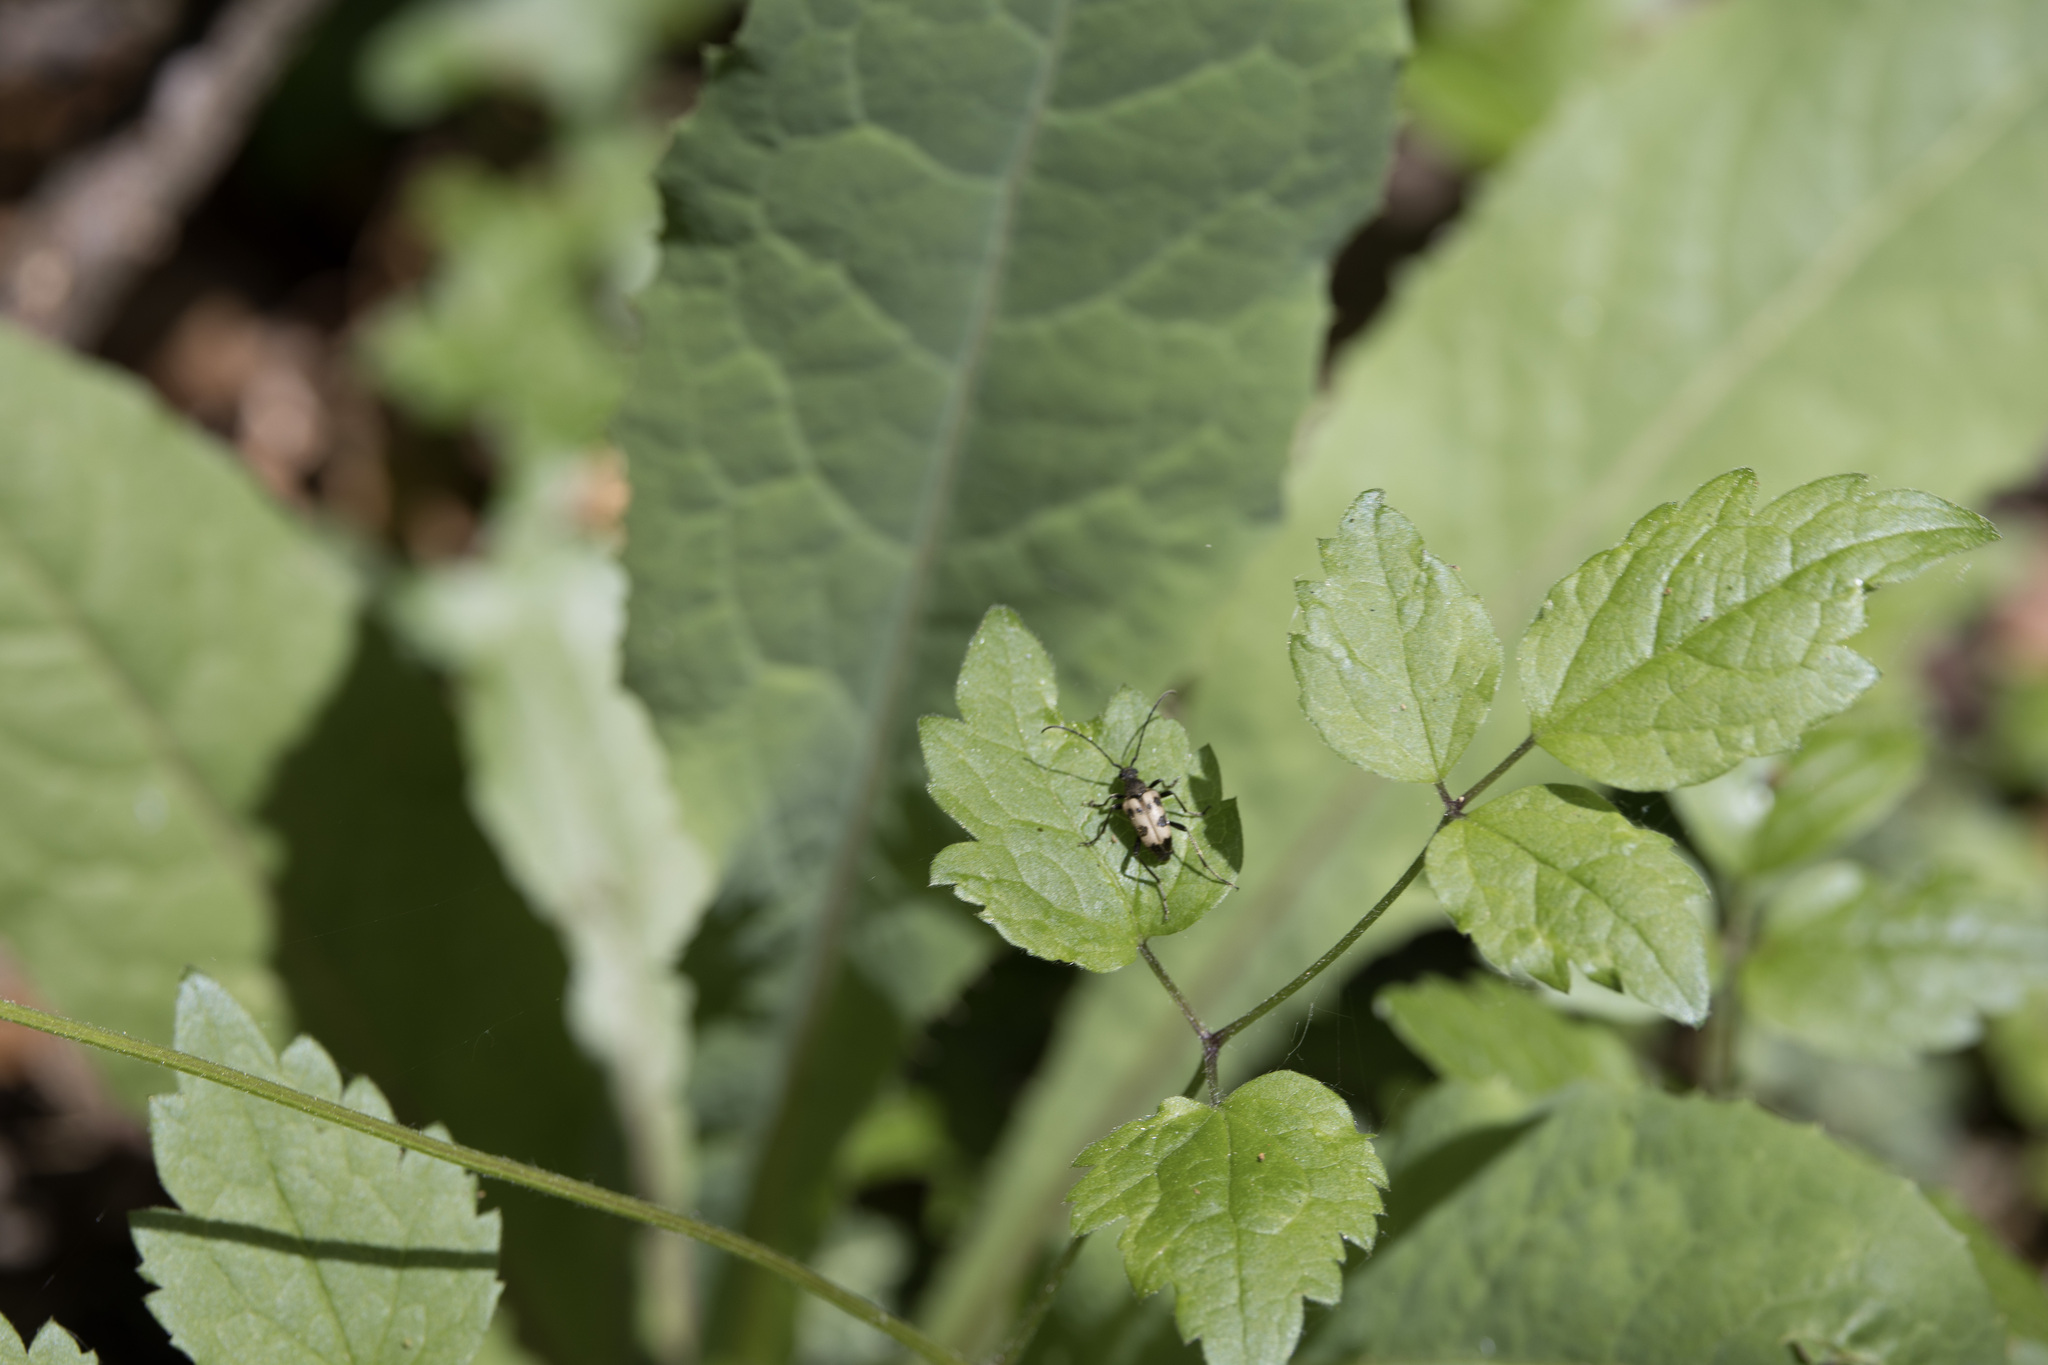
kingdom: Animalia
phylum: Arthropoda
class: Insecta
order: Coleoptera
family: Cerambycidae
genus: Pachytodes
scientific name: Pachytodes cerambyciformis
